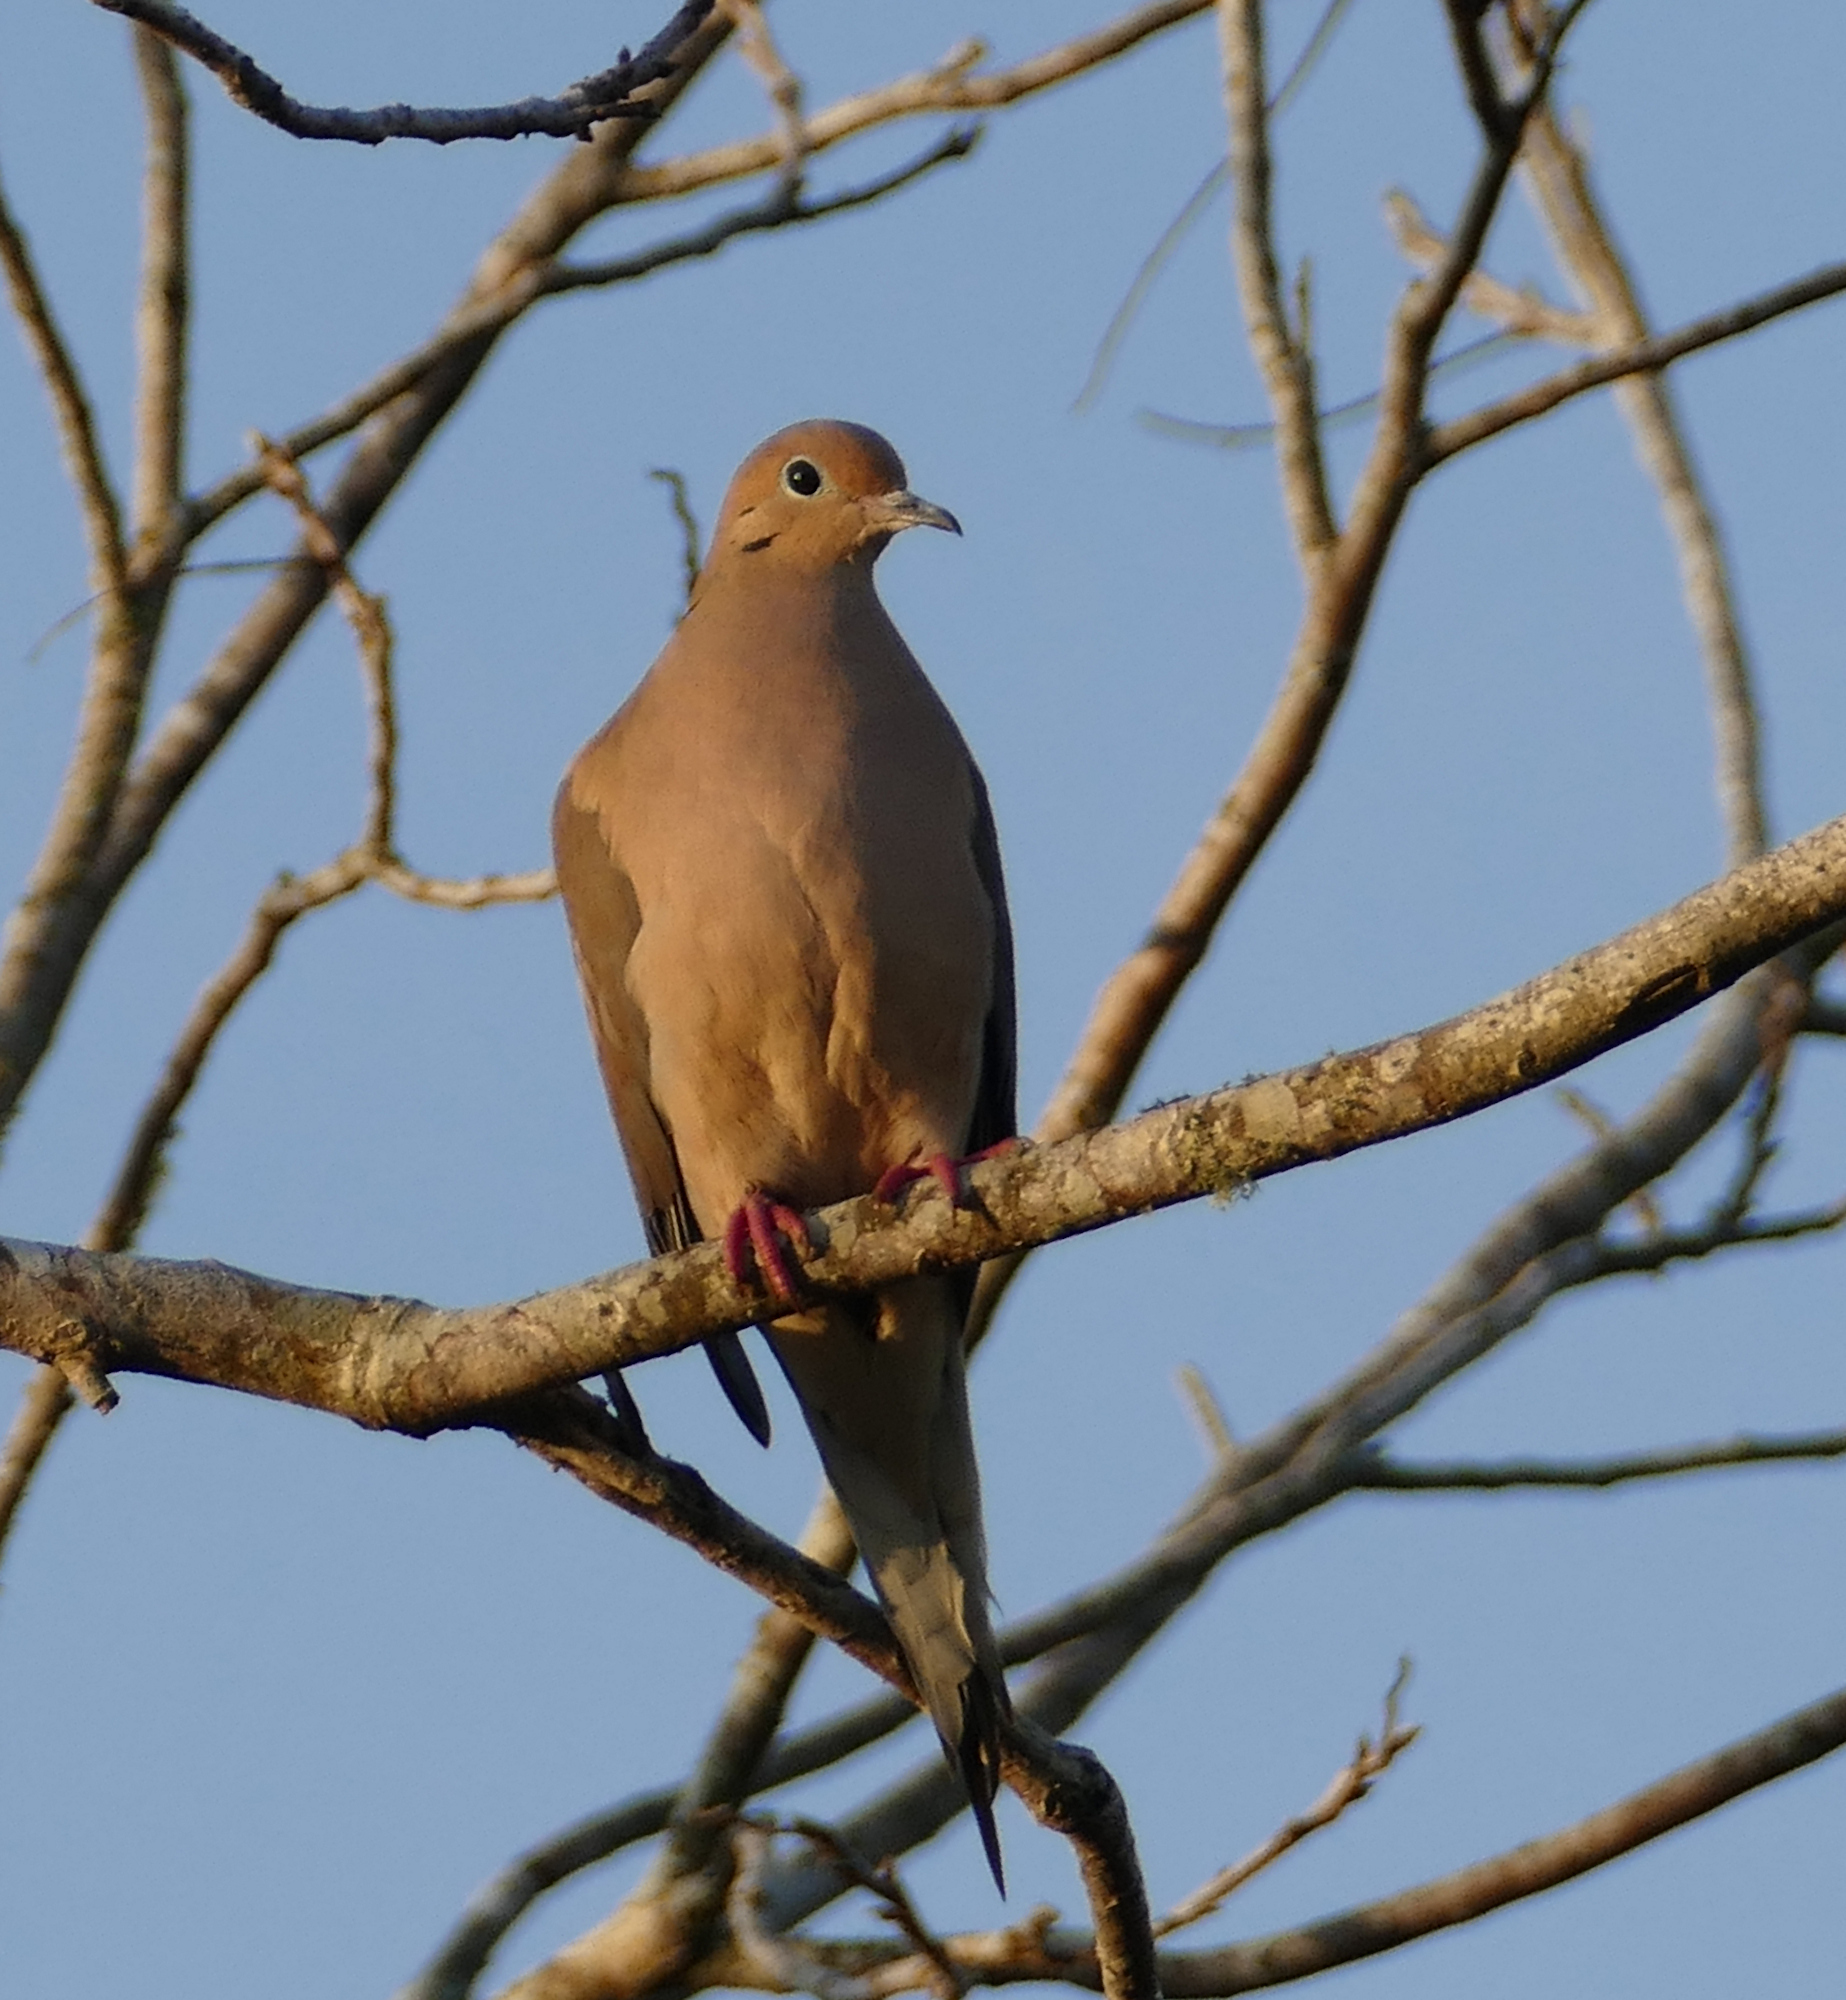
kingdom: Animalia
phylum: Chordata
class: Aves
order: Columbiformes
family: Columbidae
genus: Zenaida
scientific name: Zenaida macroura
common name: Mourning dove
